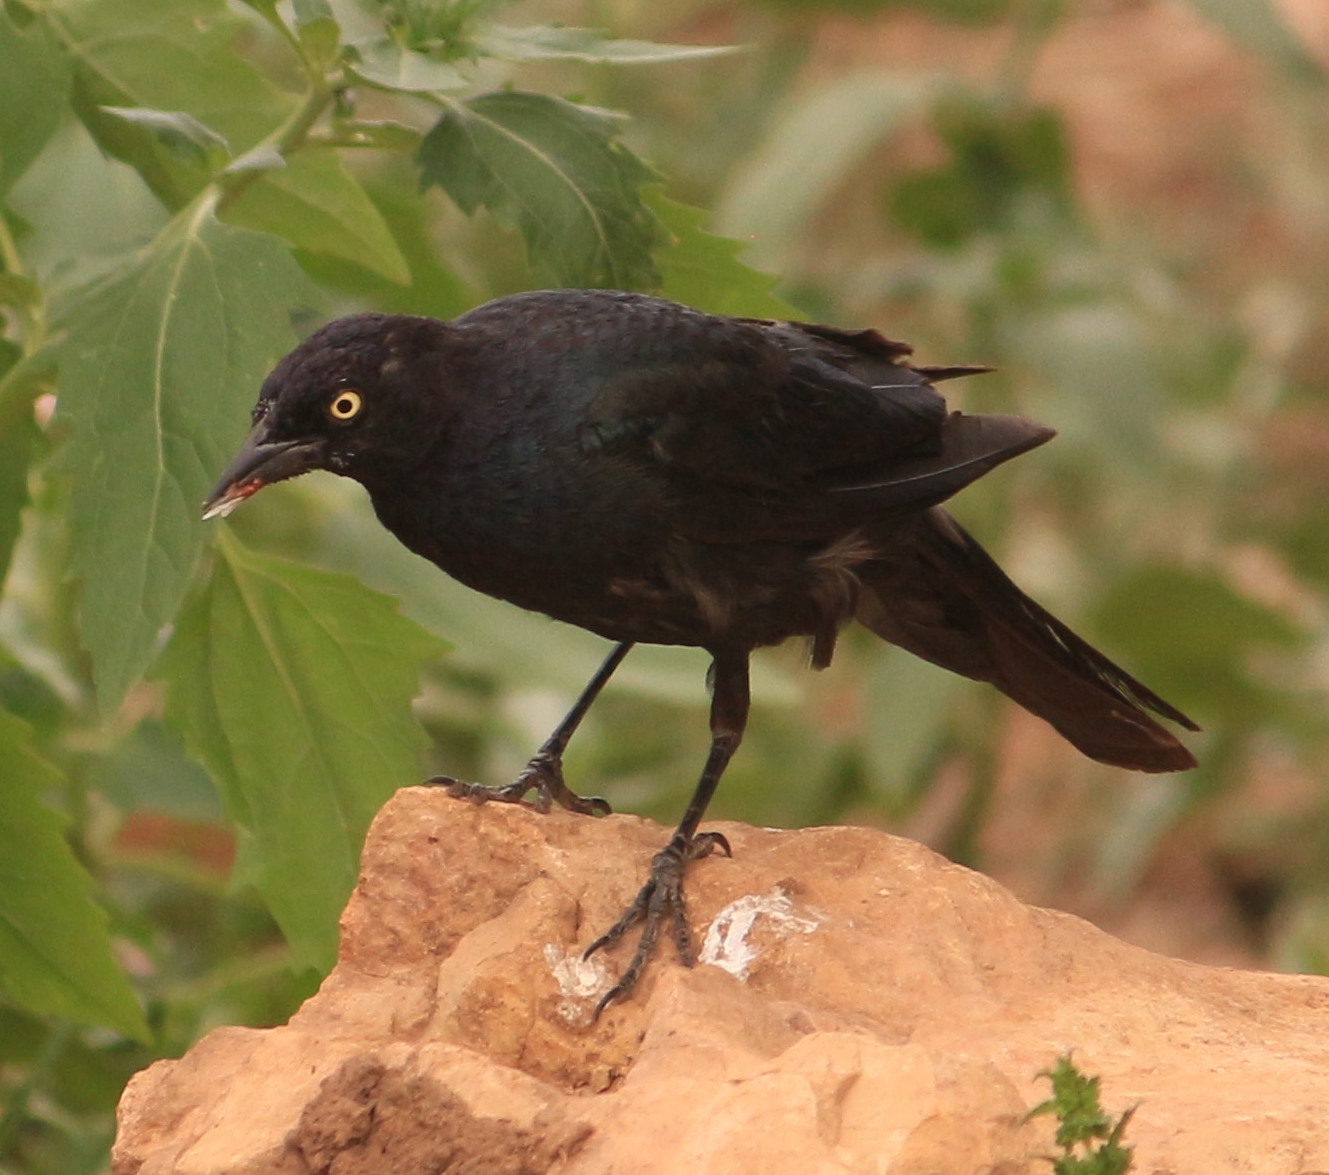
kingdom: Animalia
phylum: Chordata
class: Aves
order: Passeriformes
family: Icteridae
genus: Euphagus
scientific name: Euphagus cyanocephalus
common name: Brewer's blackbird
